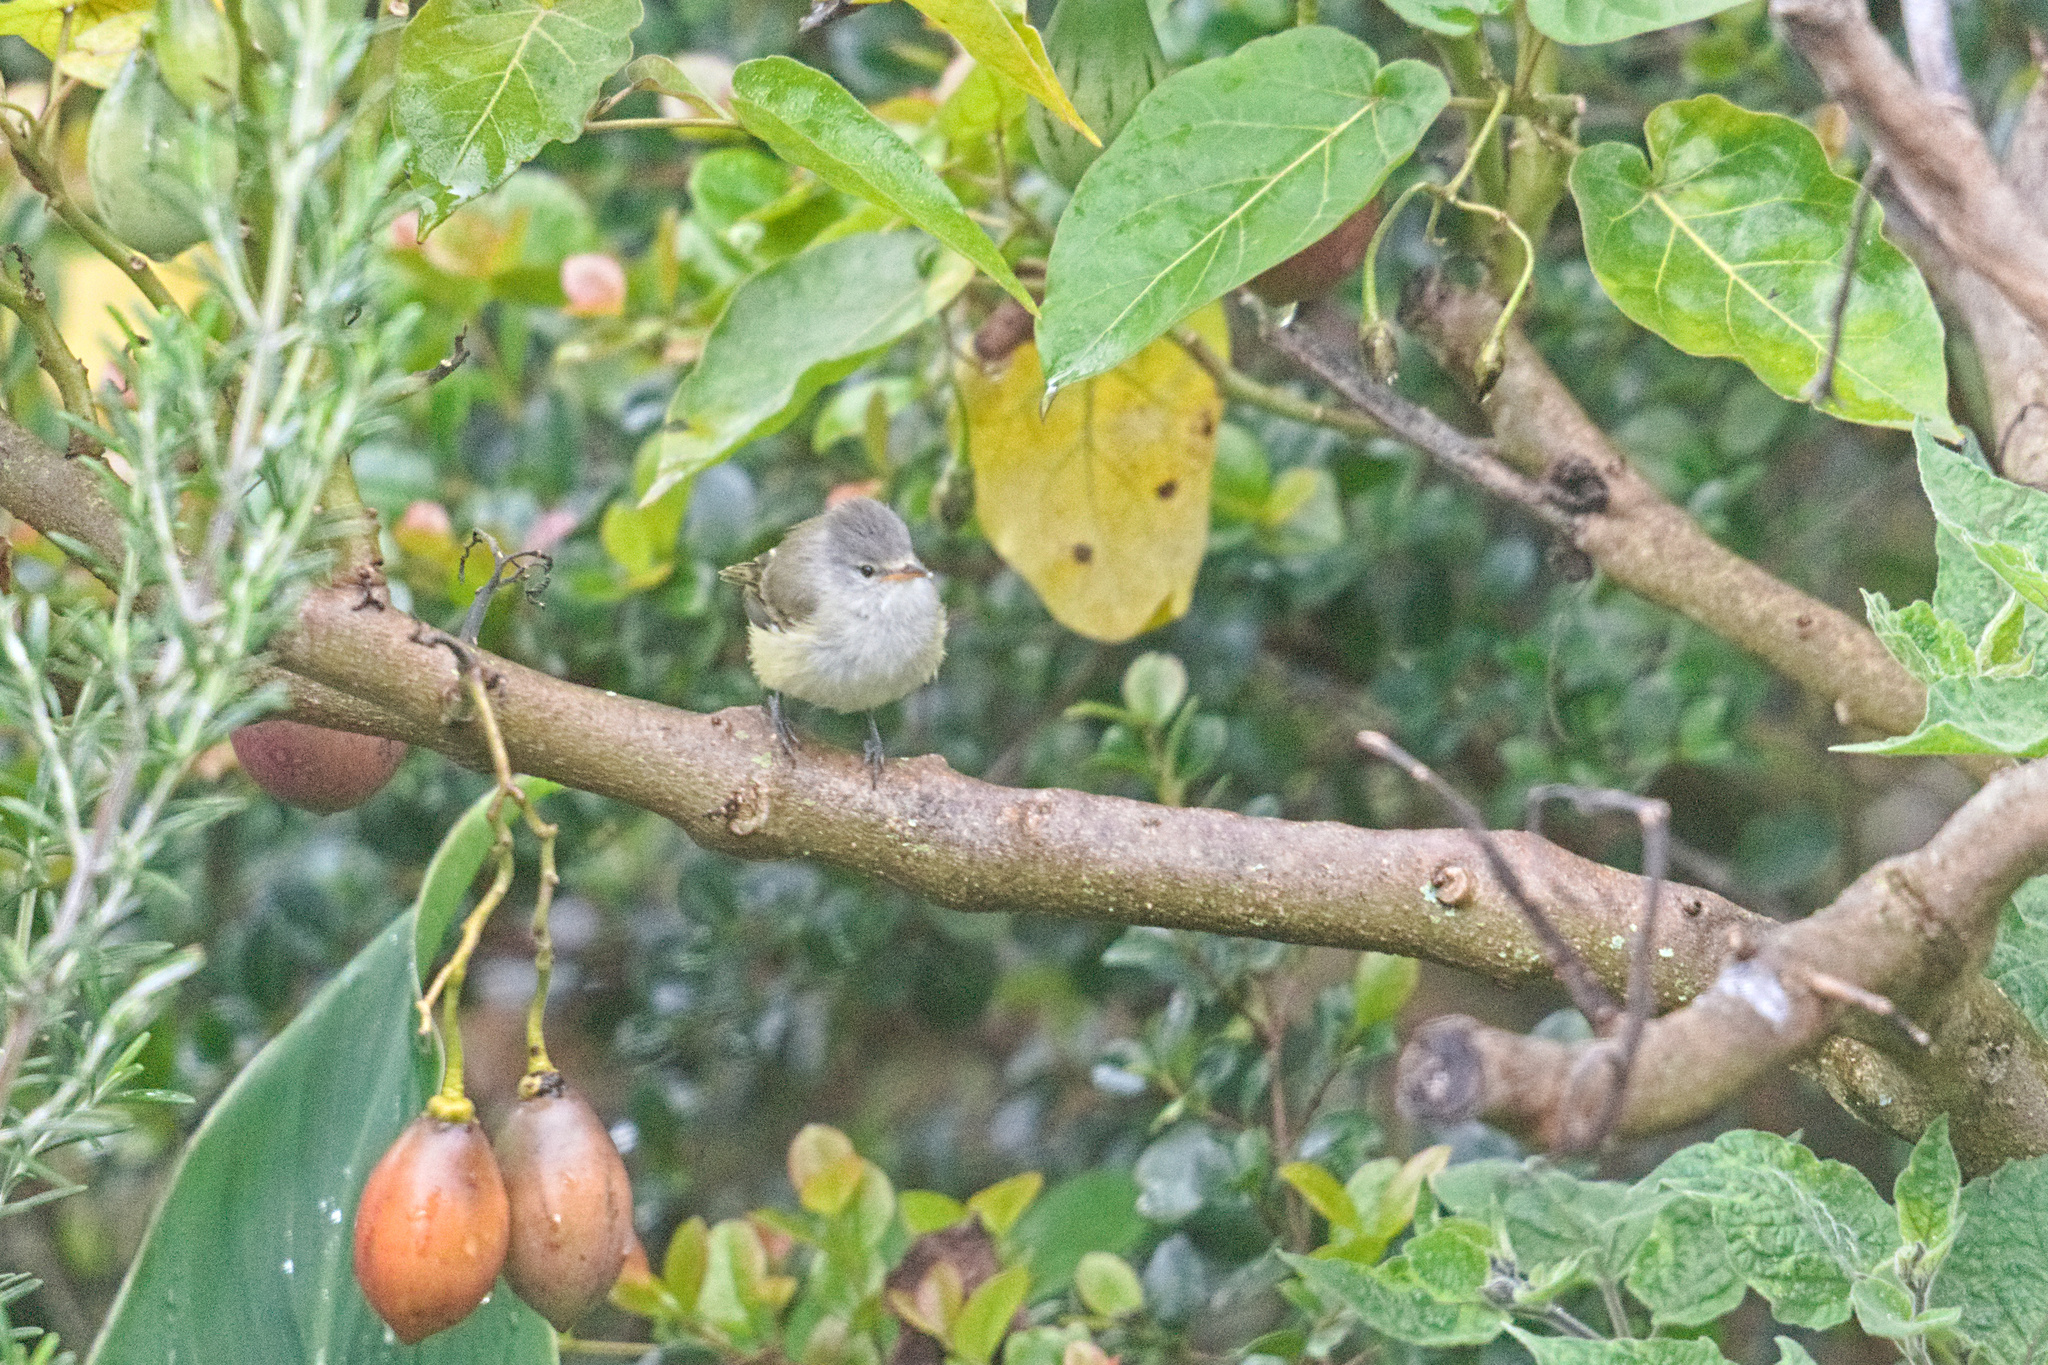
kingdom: Animalia
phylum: Chordata
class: Aves
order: Passeriformes
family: Tyrannidae
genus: Camptostoma
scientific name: Camptostoma obsoletum
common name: Southern beardless-tyrannulet
